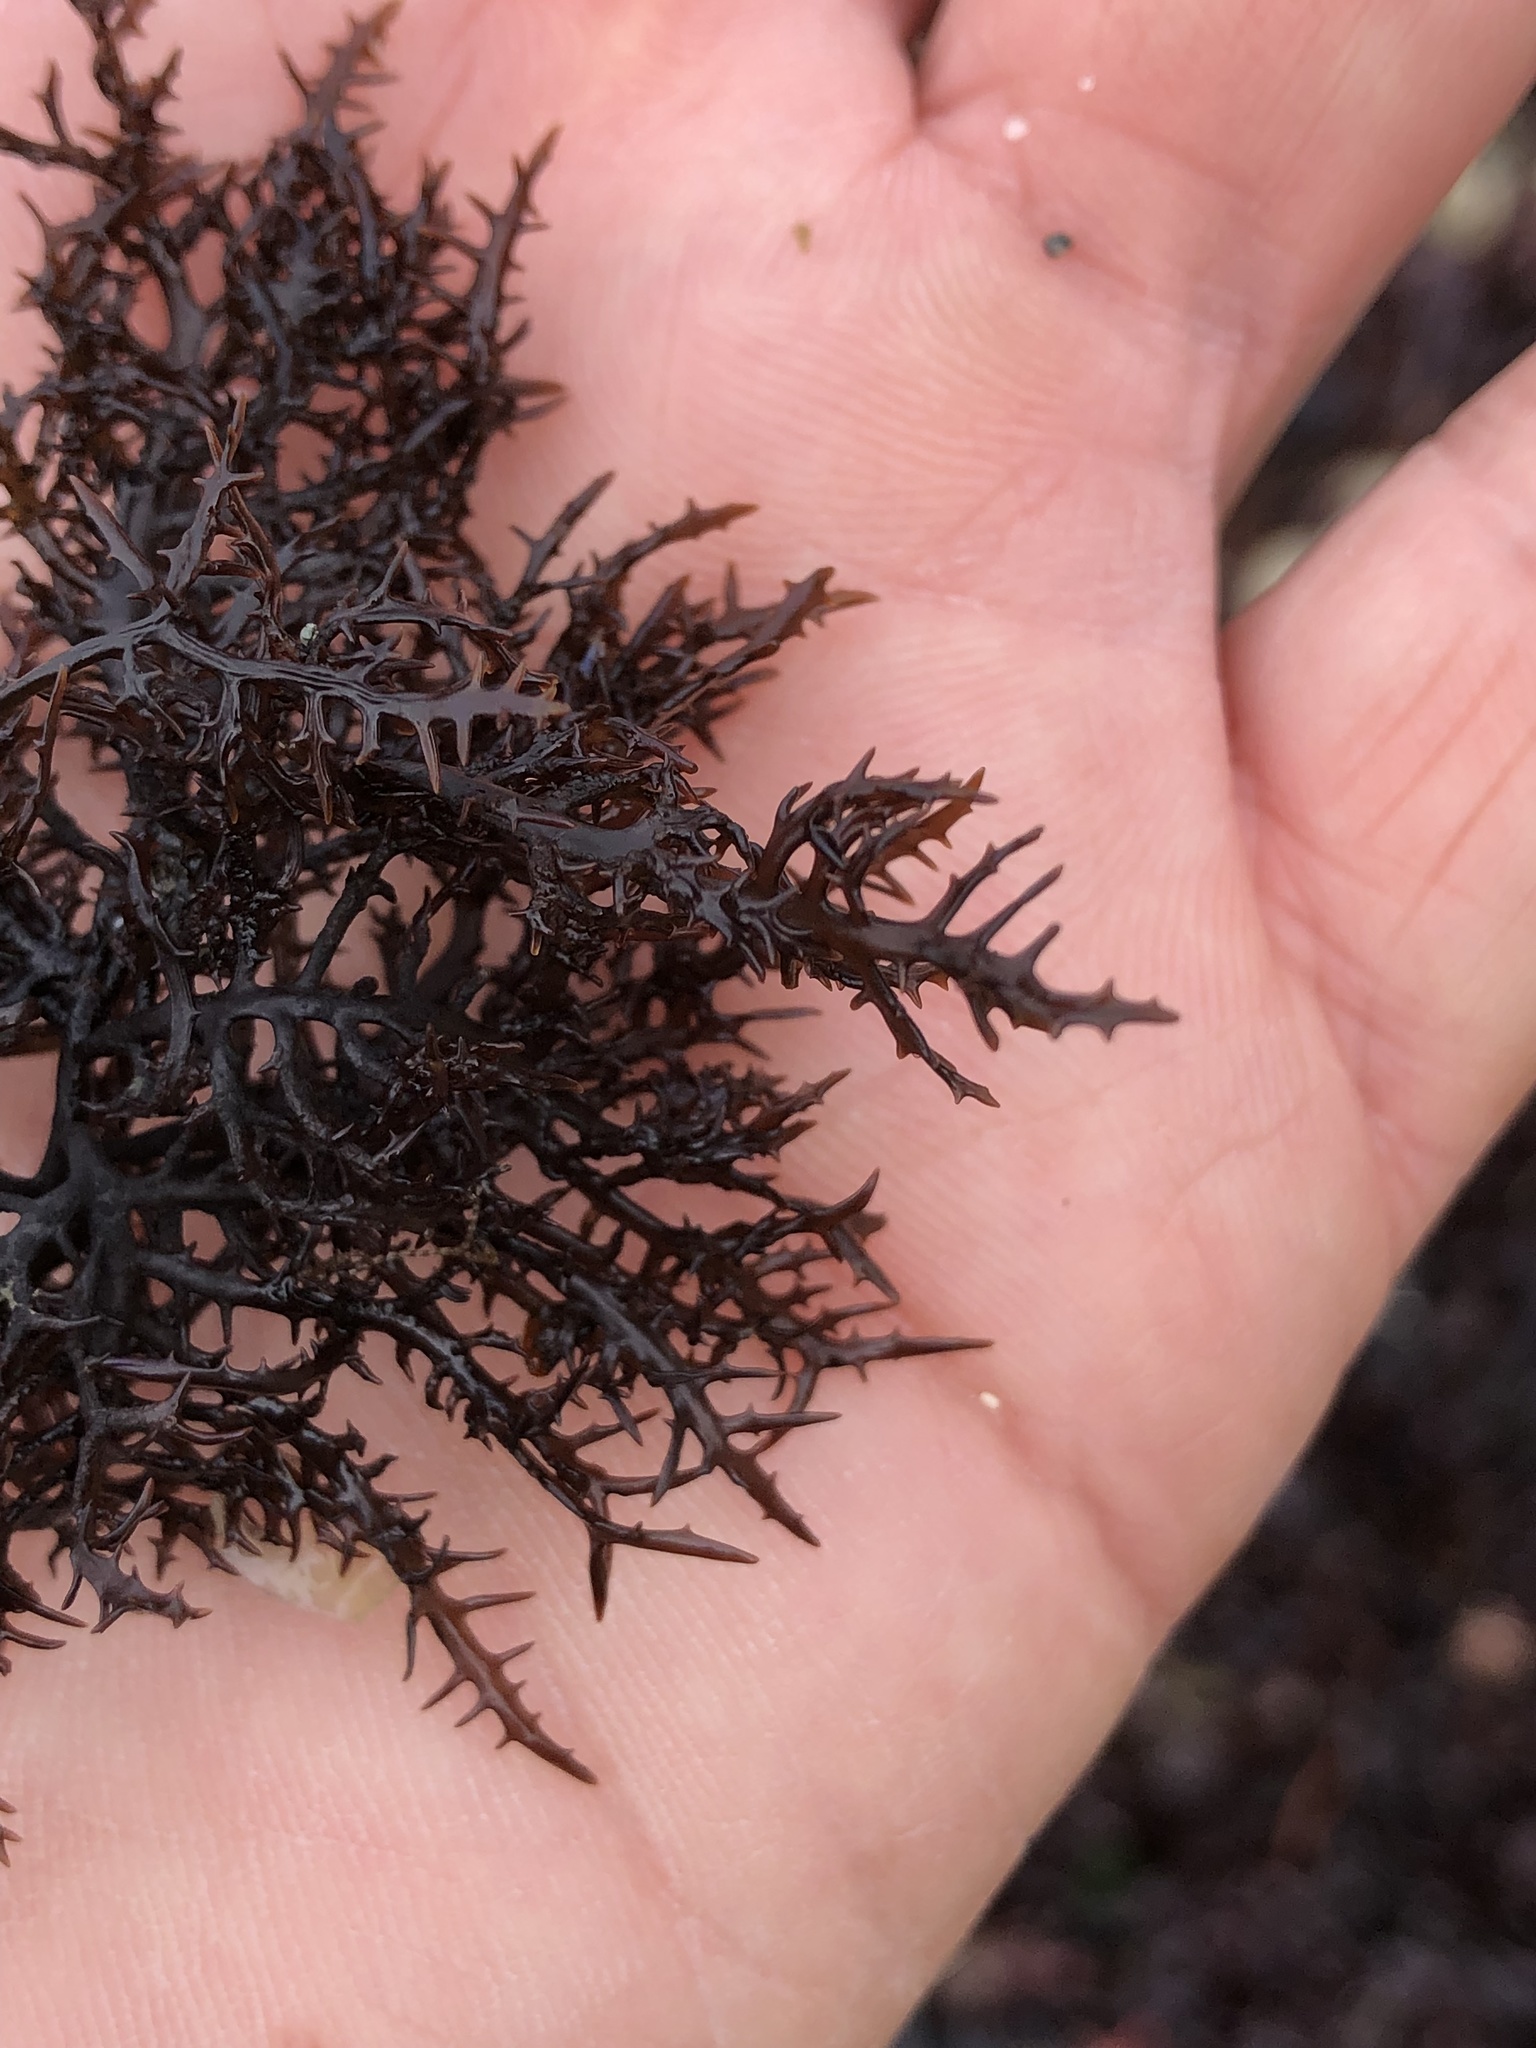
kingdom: Plantae
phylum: Rhodophyta
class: Florideophyceae
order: Gigartinales
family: Gigartinaceae
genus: Chondracanthus
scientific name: Chondracanthus canaliculatus
